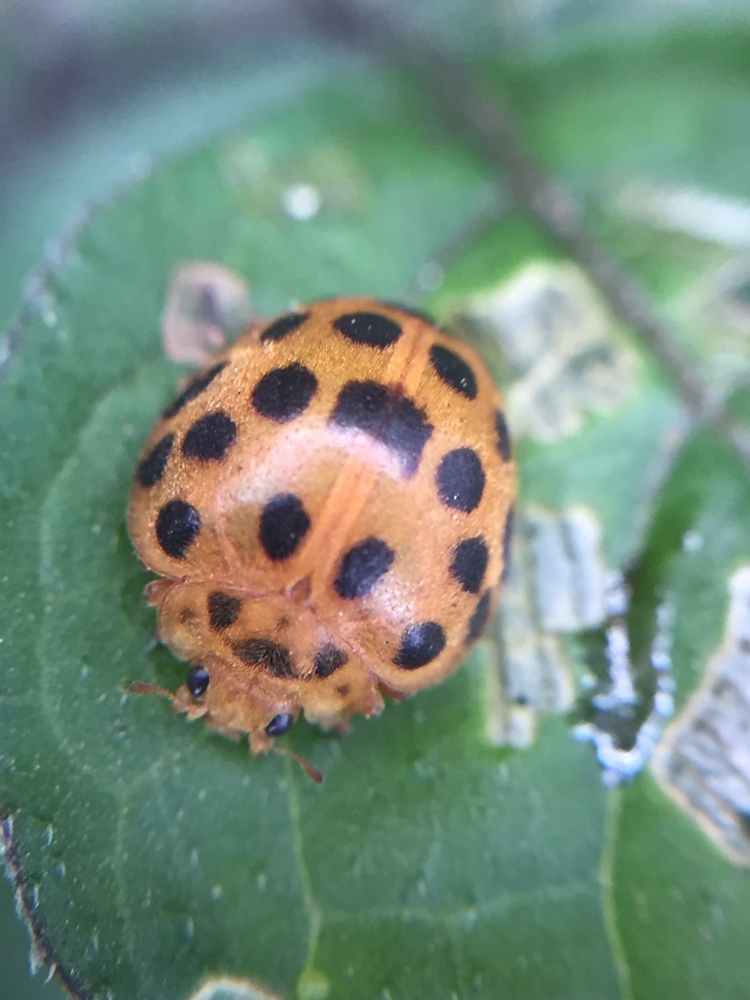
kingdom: Animalia
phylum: Arthropoda
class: Insecta
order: Coleoptera
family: Coccinellidae
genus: Henosepilachna
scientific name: Henosepilachna vigintioctopunctata
